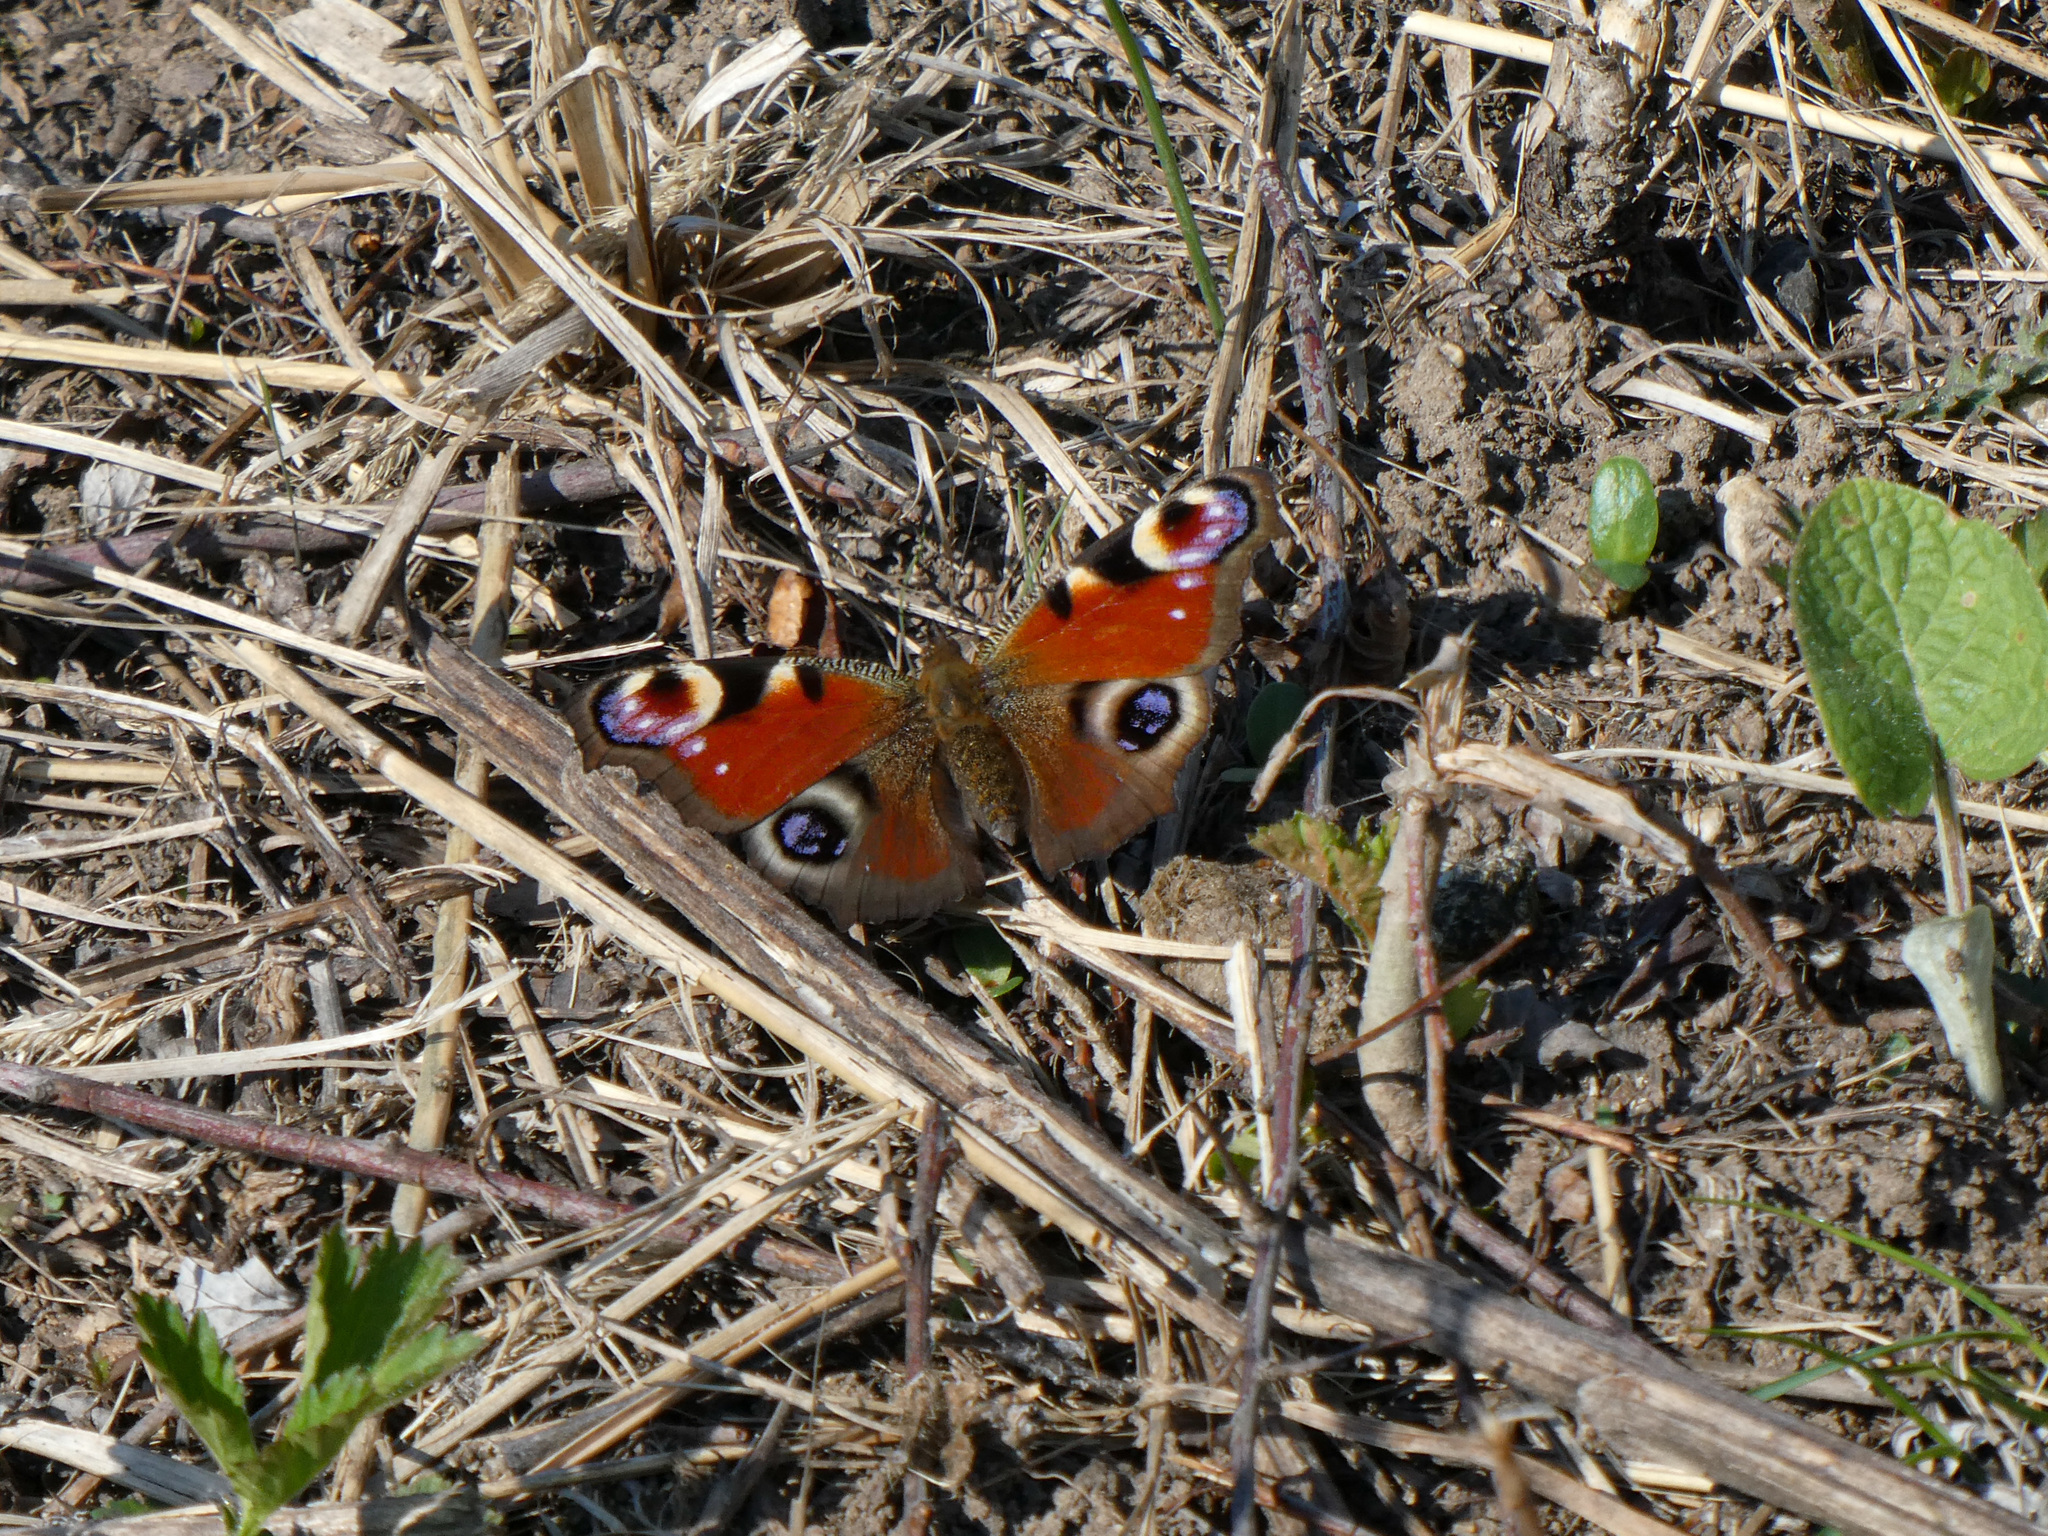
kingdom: Animalia
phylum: Arthropoda
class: Insecta
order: Lepidoptera
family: Nymphalidae
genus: Aglais
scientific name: Aglais io
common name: Peacock
